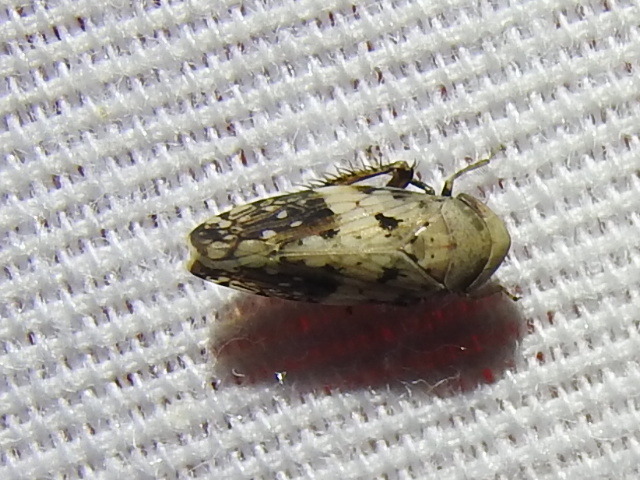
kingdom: Animalia
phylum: Arthropoda
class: Insecta
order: Hemiptera
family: Cicadellidae
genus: Menosoma
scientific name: Menosoma cinctum
